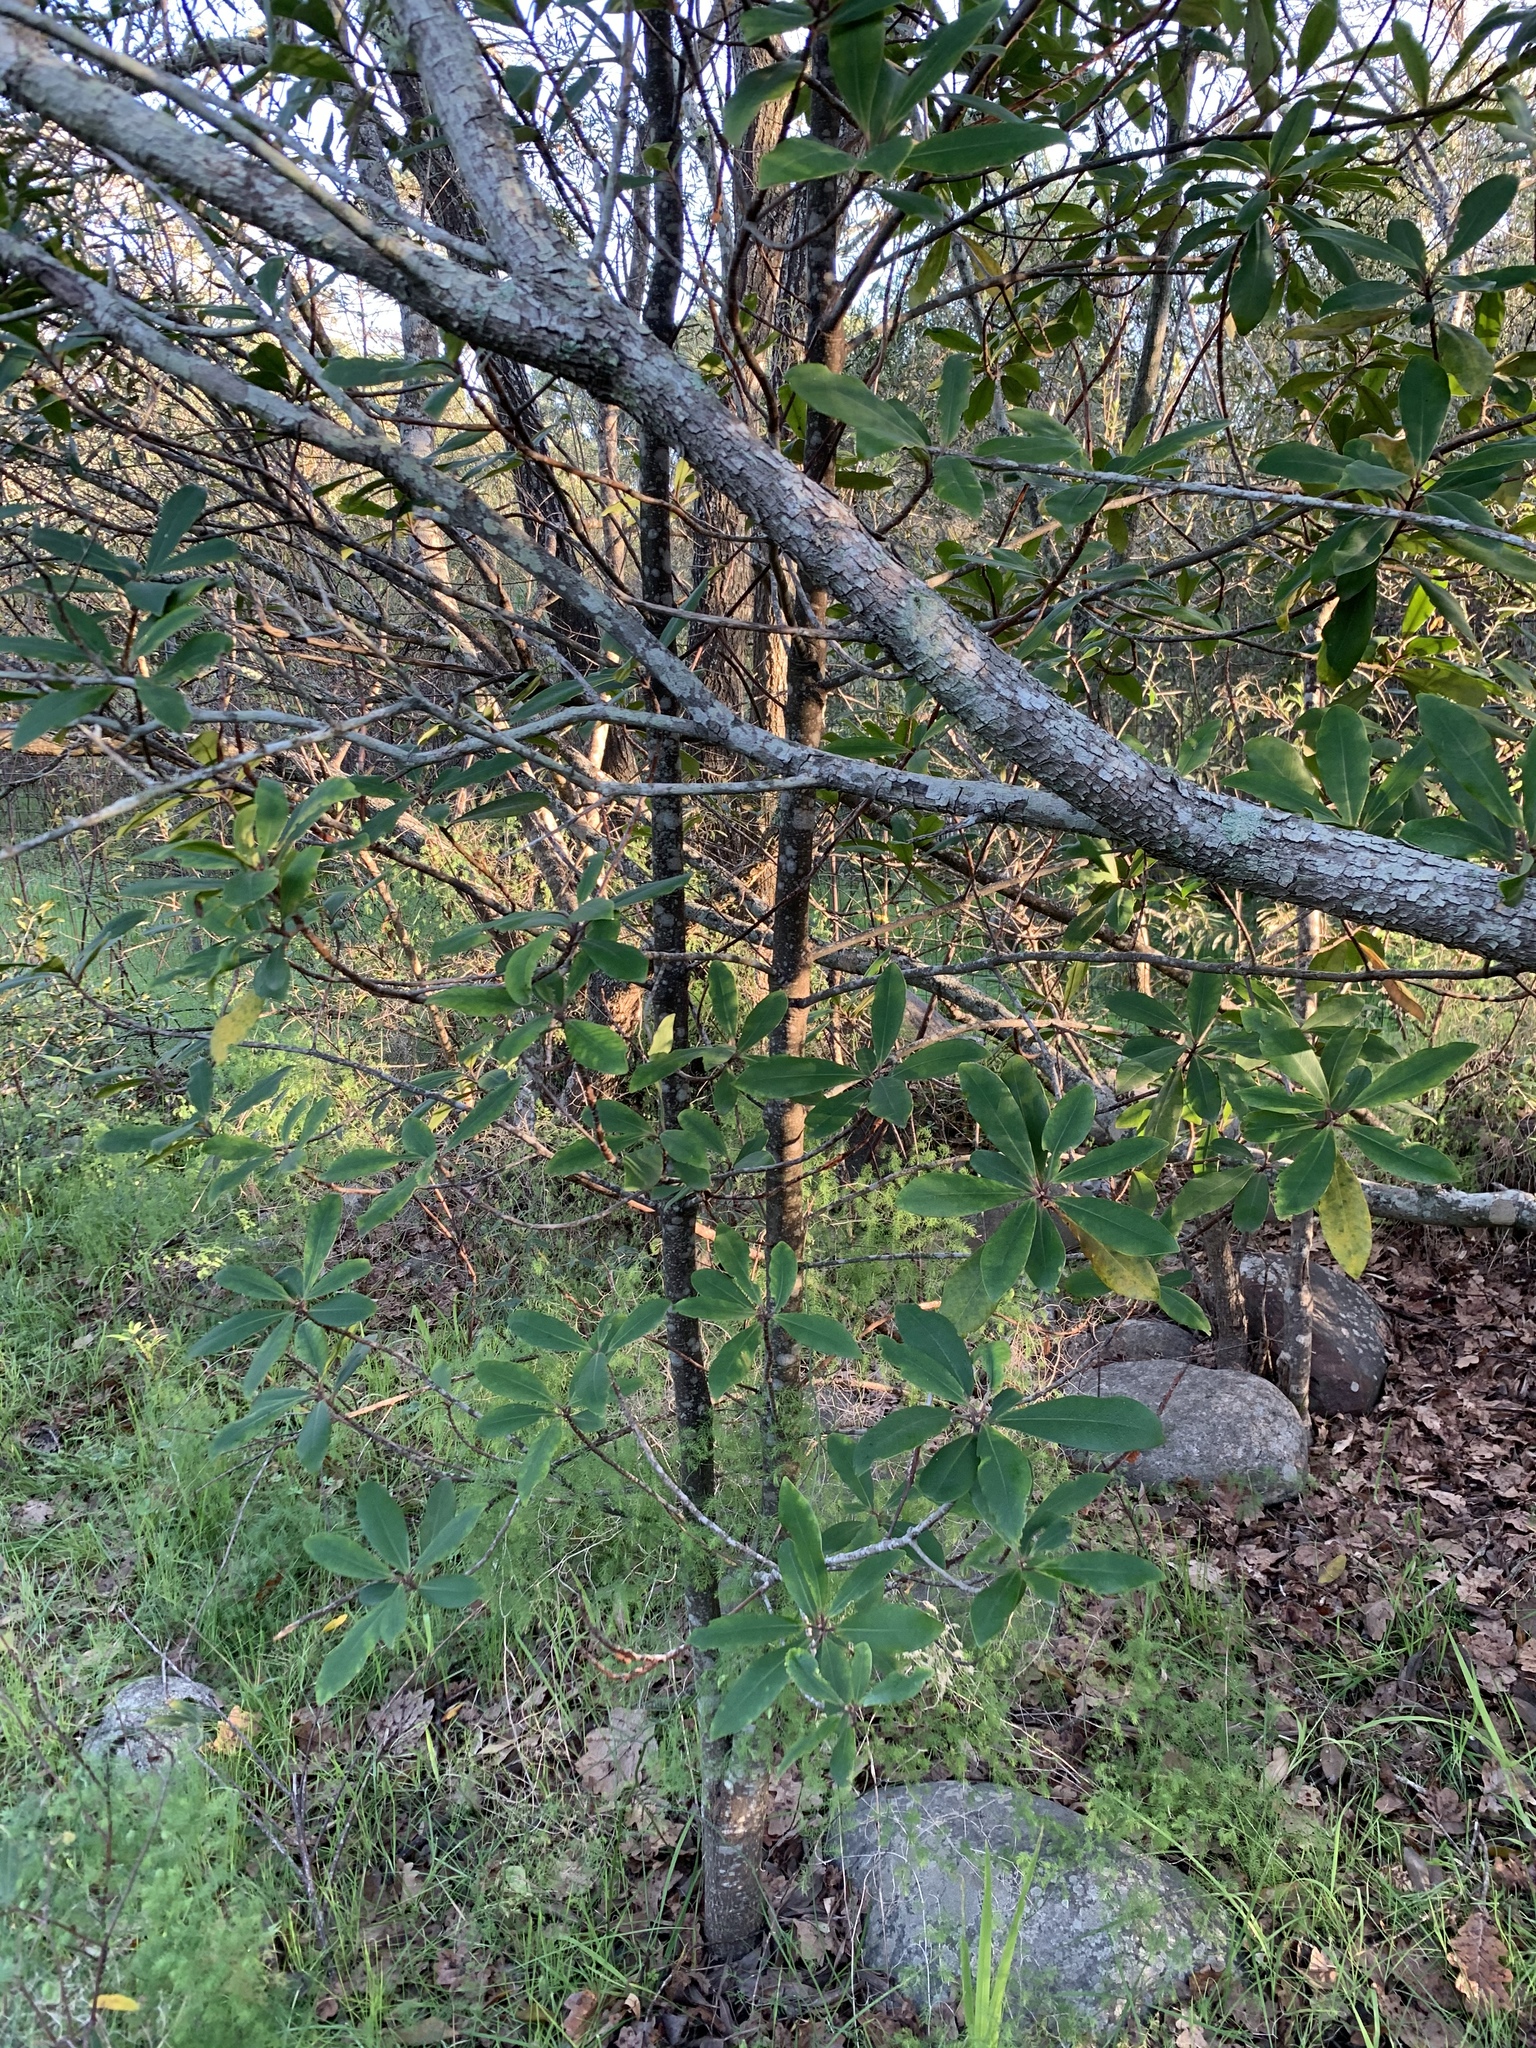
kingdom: Plantae
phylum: Tracheophyta
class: Magnoliopsida
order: Ericales
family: Primulaceae
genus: Myrsine
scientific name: Myrsine melanophloeos
